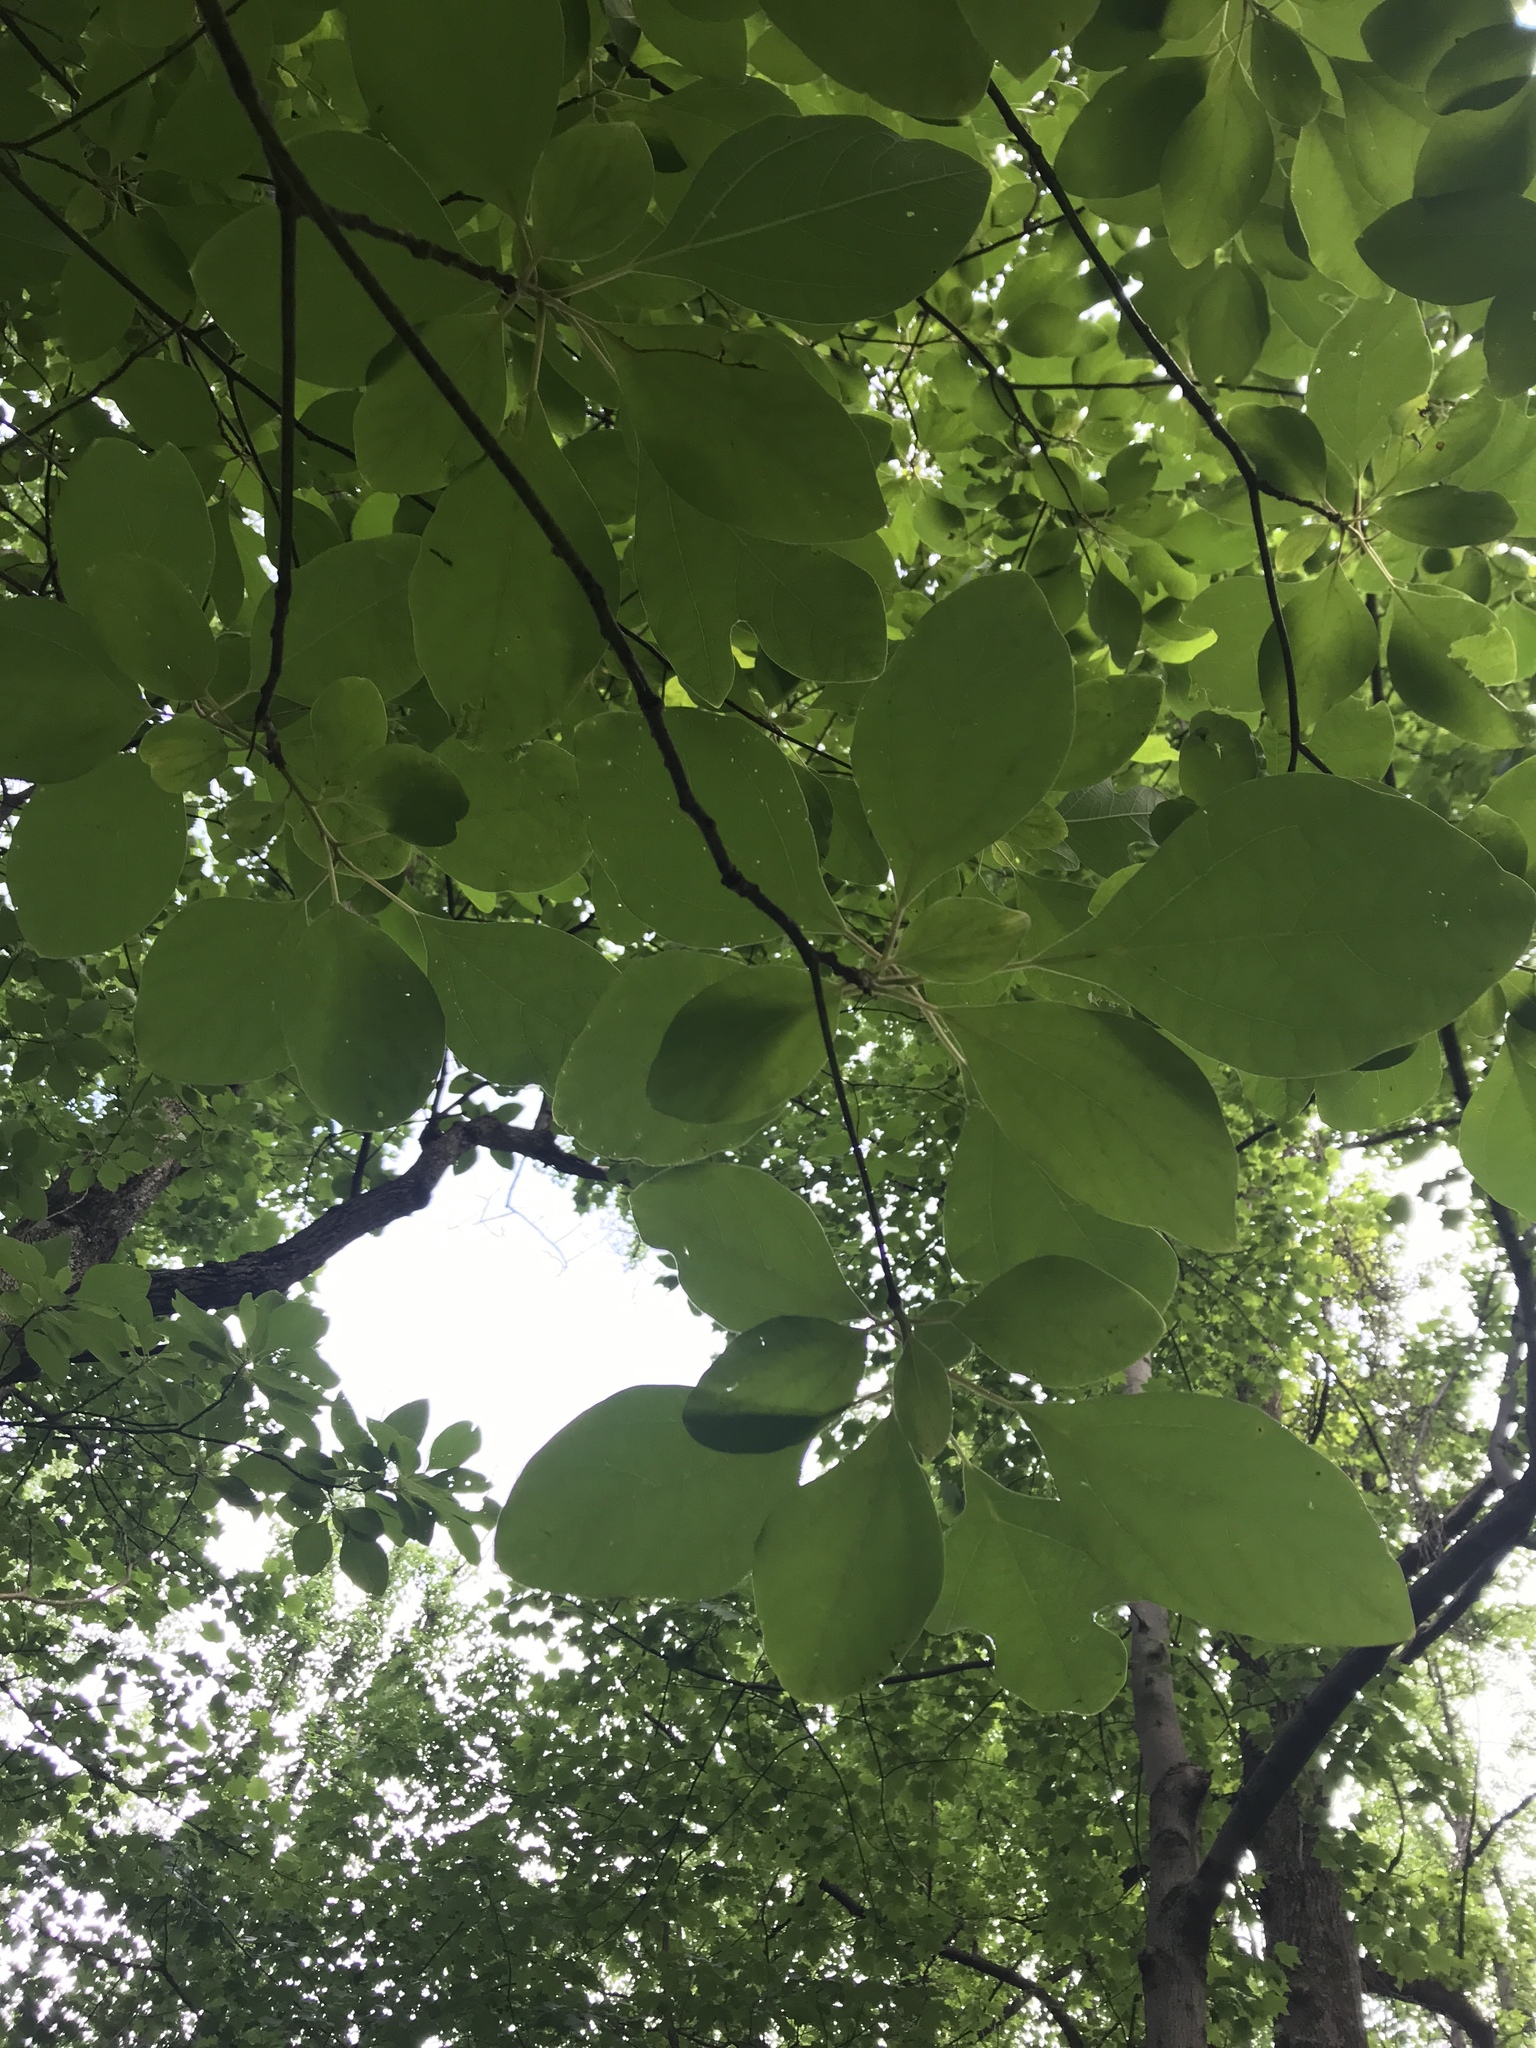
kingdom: Plantae
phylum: Tracheophyta
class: Magnoliopsida
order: Laurales
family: Lauraceae
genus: Sassafras
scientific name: Sassafras albidum
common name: Sassafras
